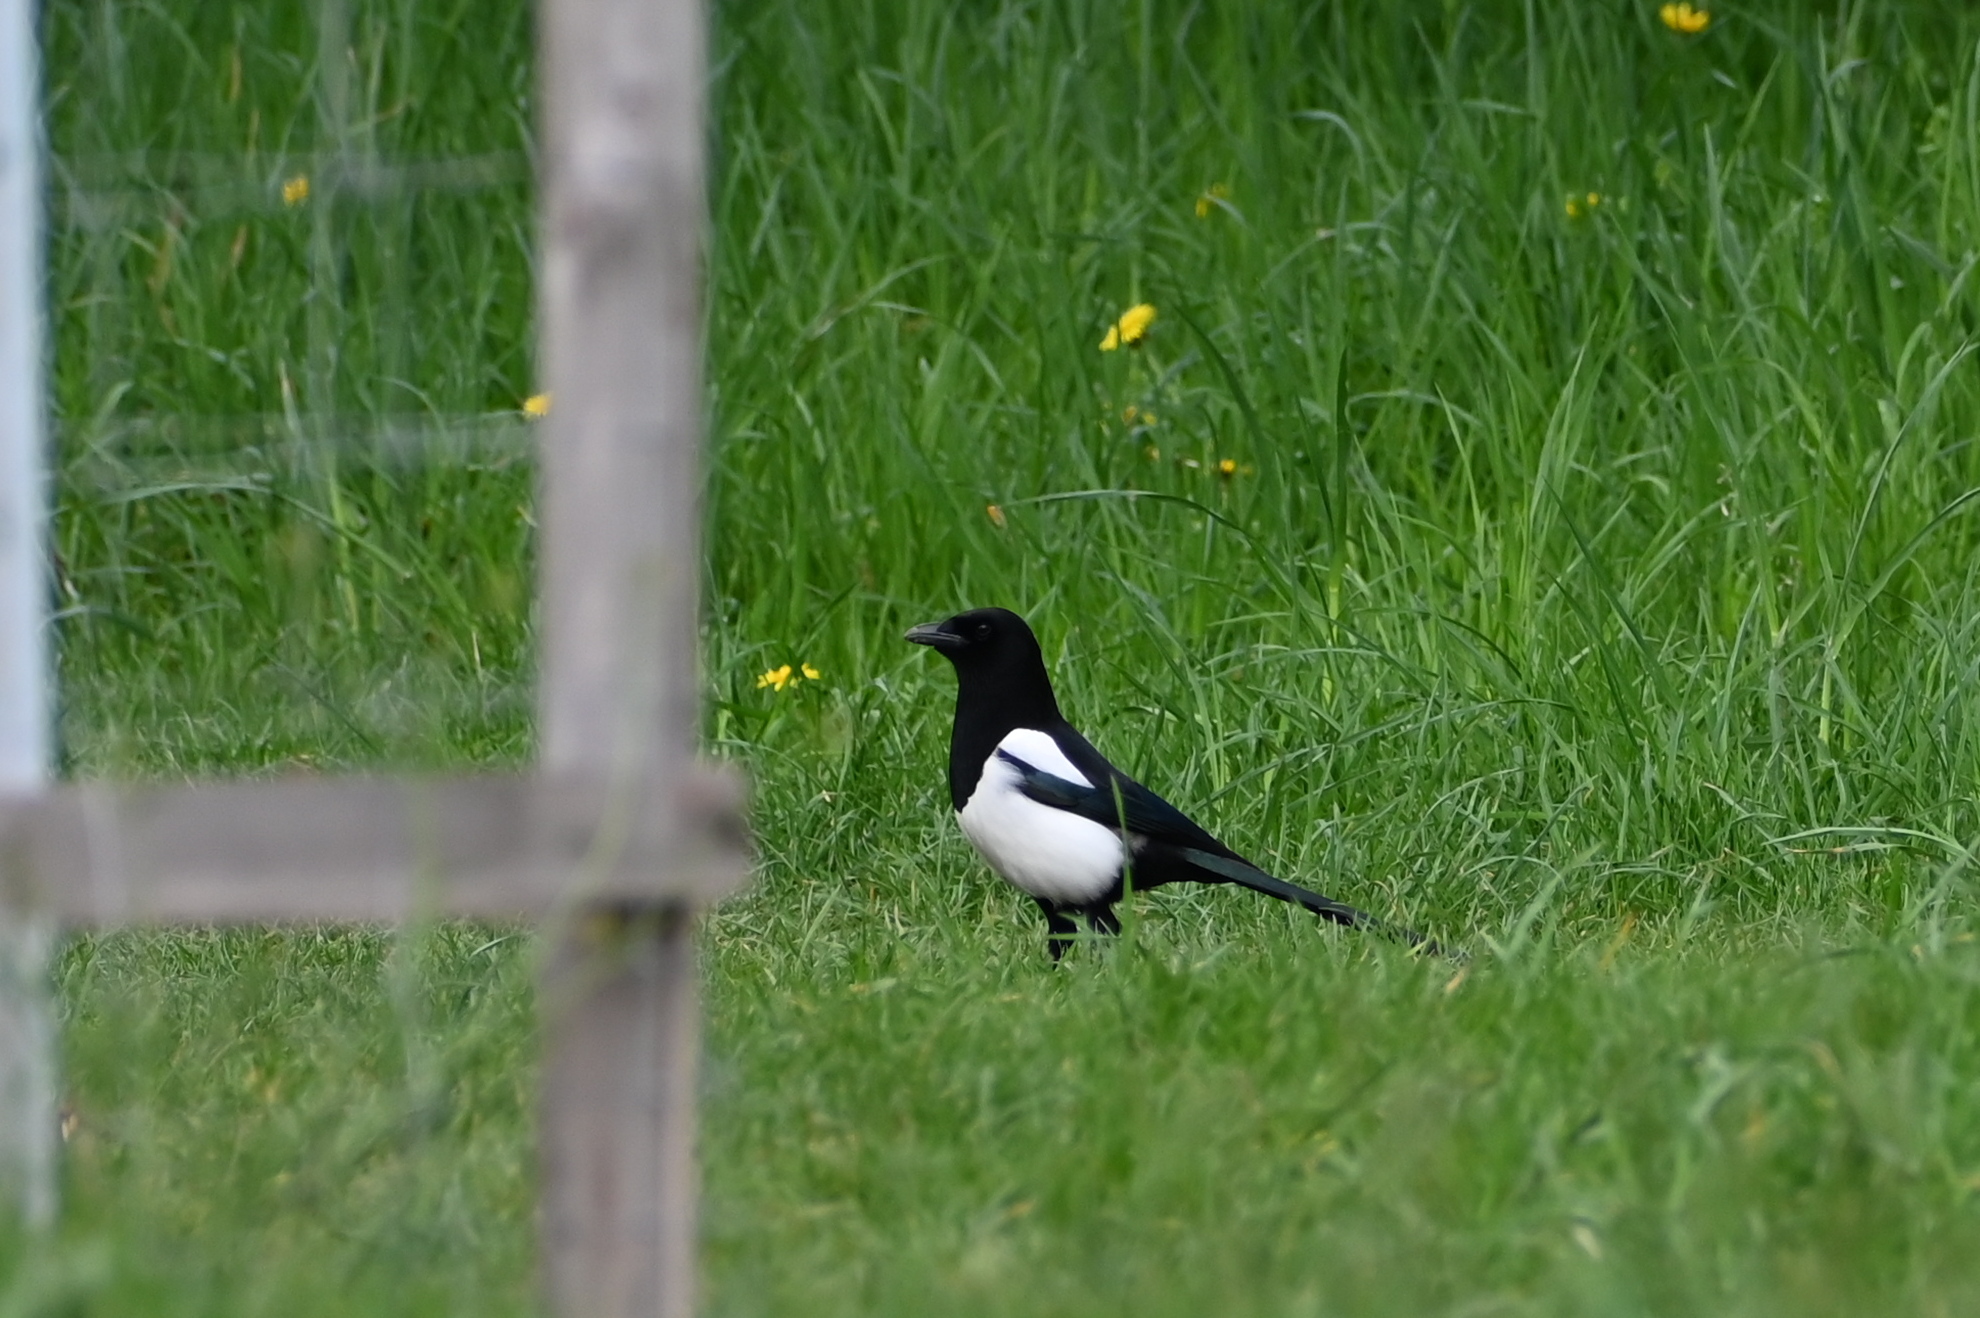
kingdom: Animalia
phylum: Chordata
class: Aves
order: Passeriformes
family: Corvidae
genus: Pica
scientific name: Pica pica
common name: Eurasian magpie
